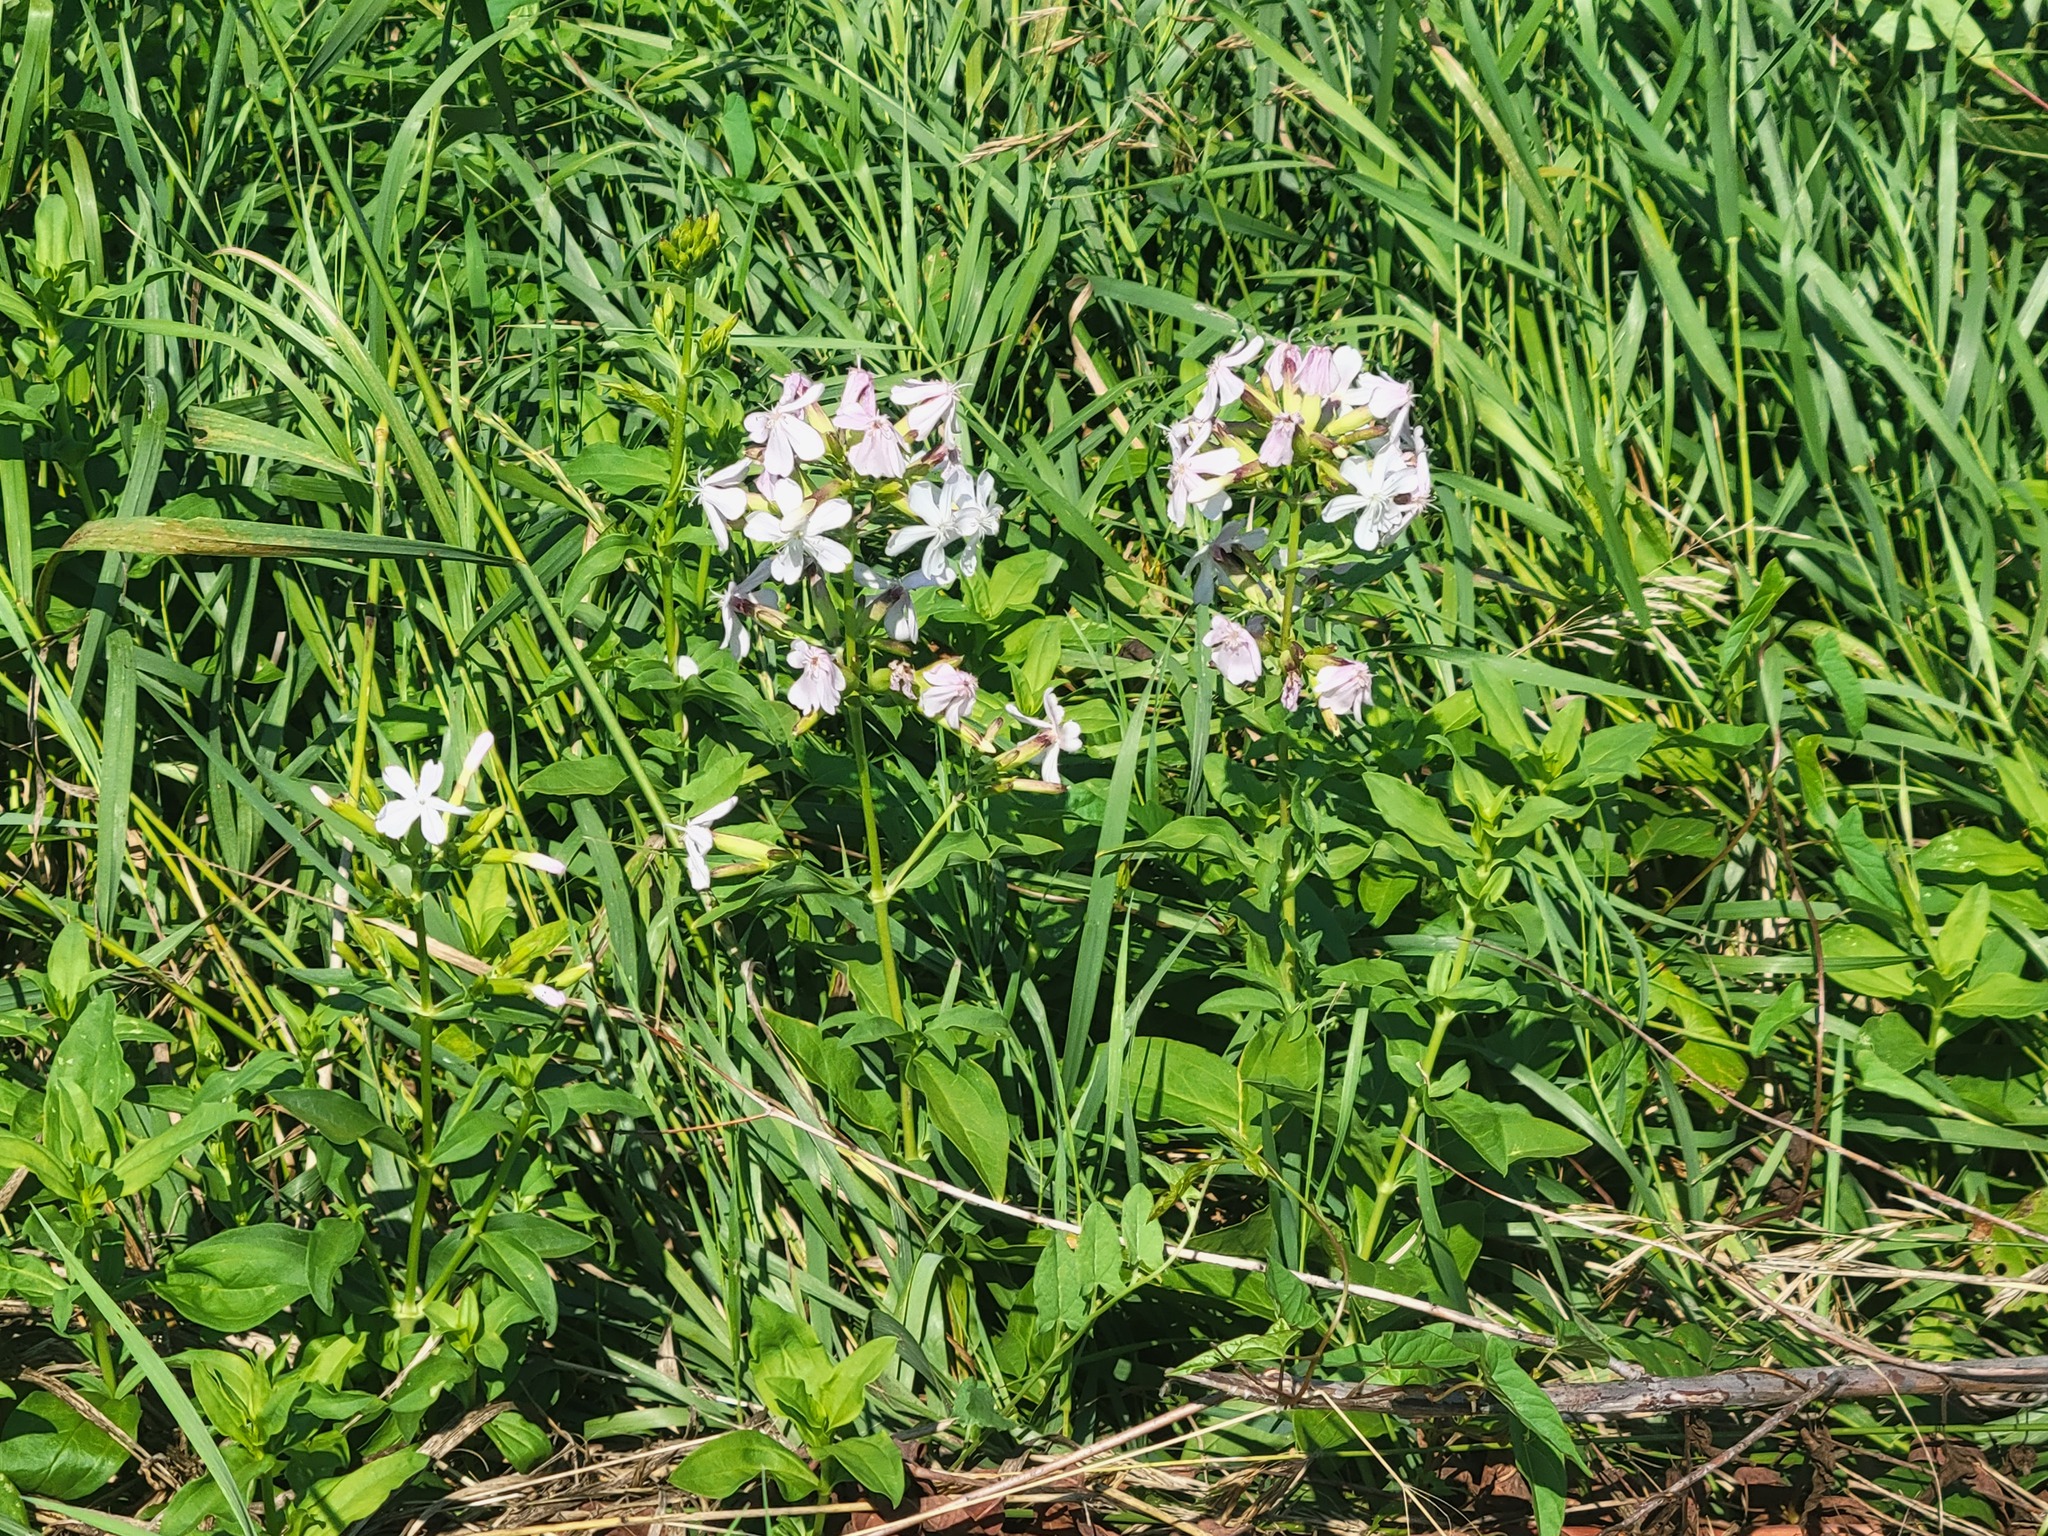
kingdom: Plantae
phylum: Tracheophyta
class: Magnoliopsida
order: Caryophyllales
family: Caryophyllaceae
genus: Saponaria
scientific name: Saponaria officinalis
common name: Soapwort
